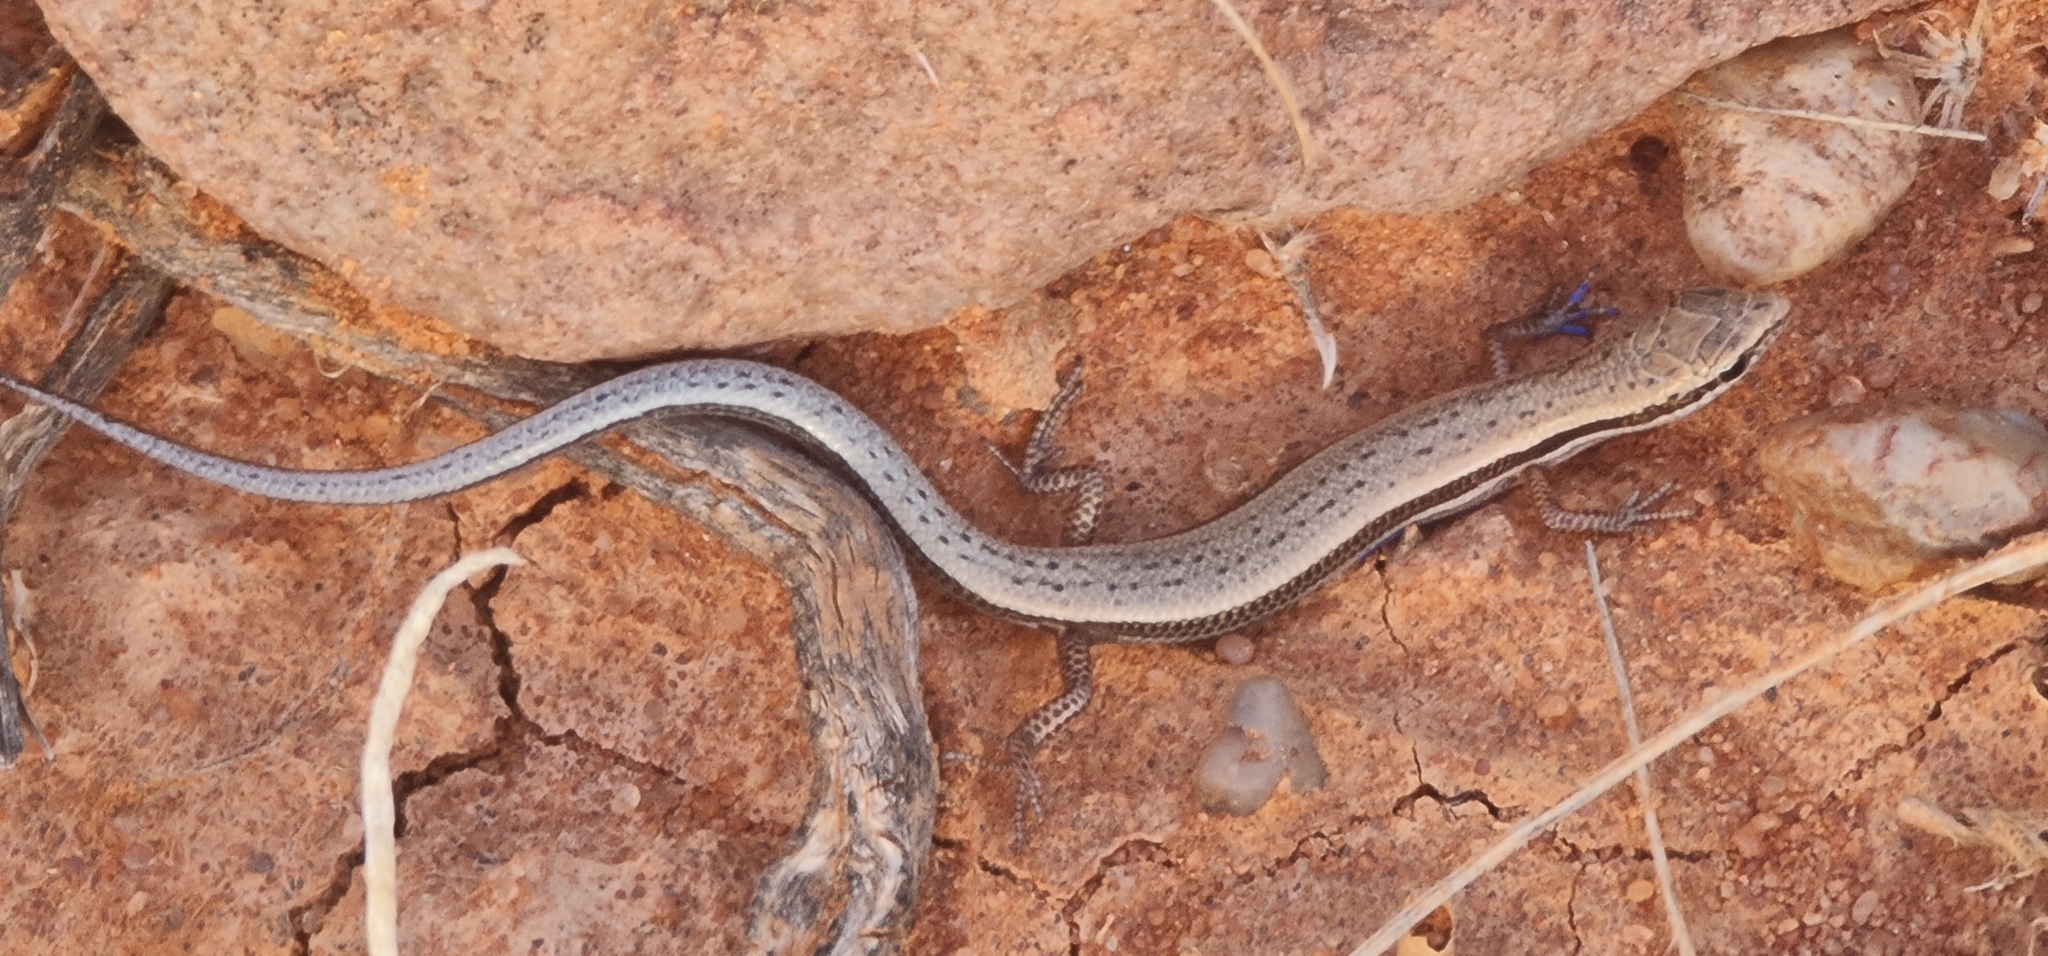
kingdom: Animalia
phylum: Chordata
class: Squamata
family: Scincidae
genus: Menetia
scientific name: Menetia greyii
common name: Common dwarf skink
